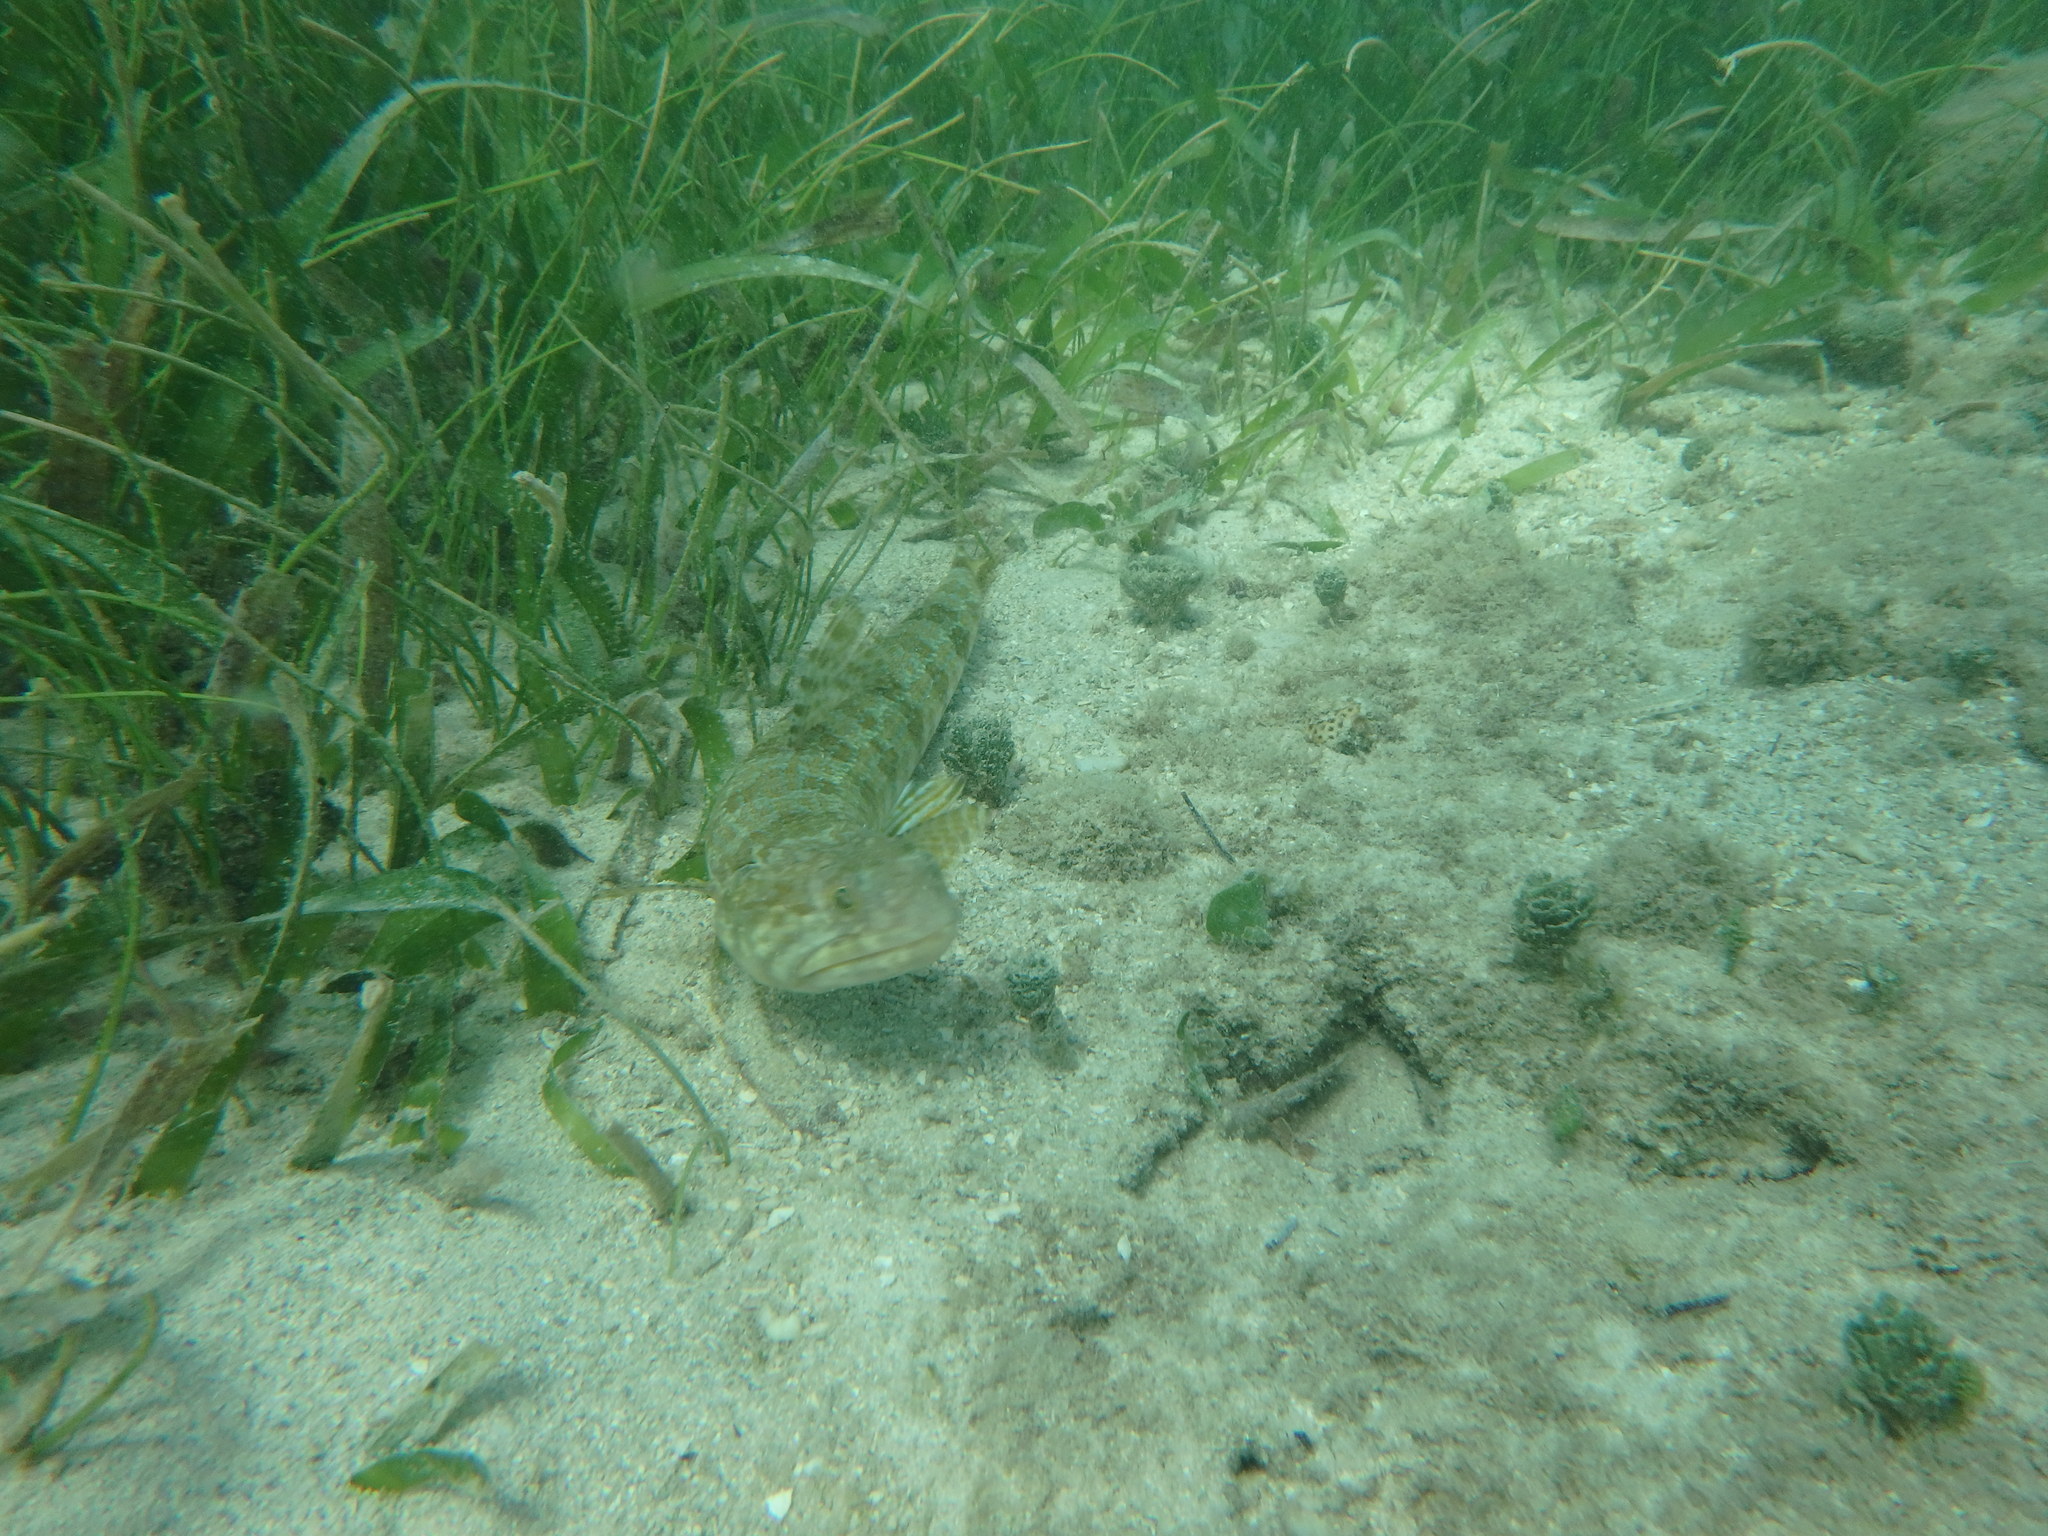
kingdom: Animalia
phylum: Chordata
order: Aulopiformes
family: Synodontidae
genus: Synodus
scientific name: Synodus intermedius
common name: Sand diver
